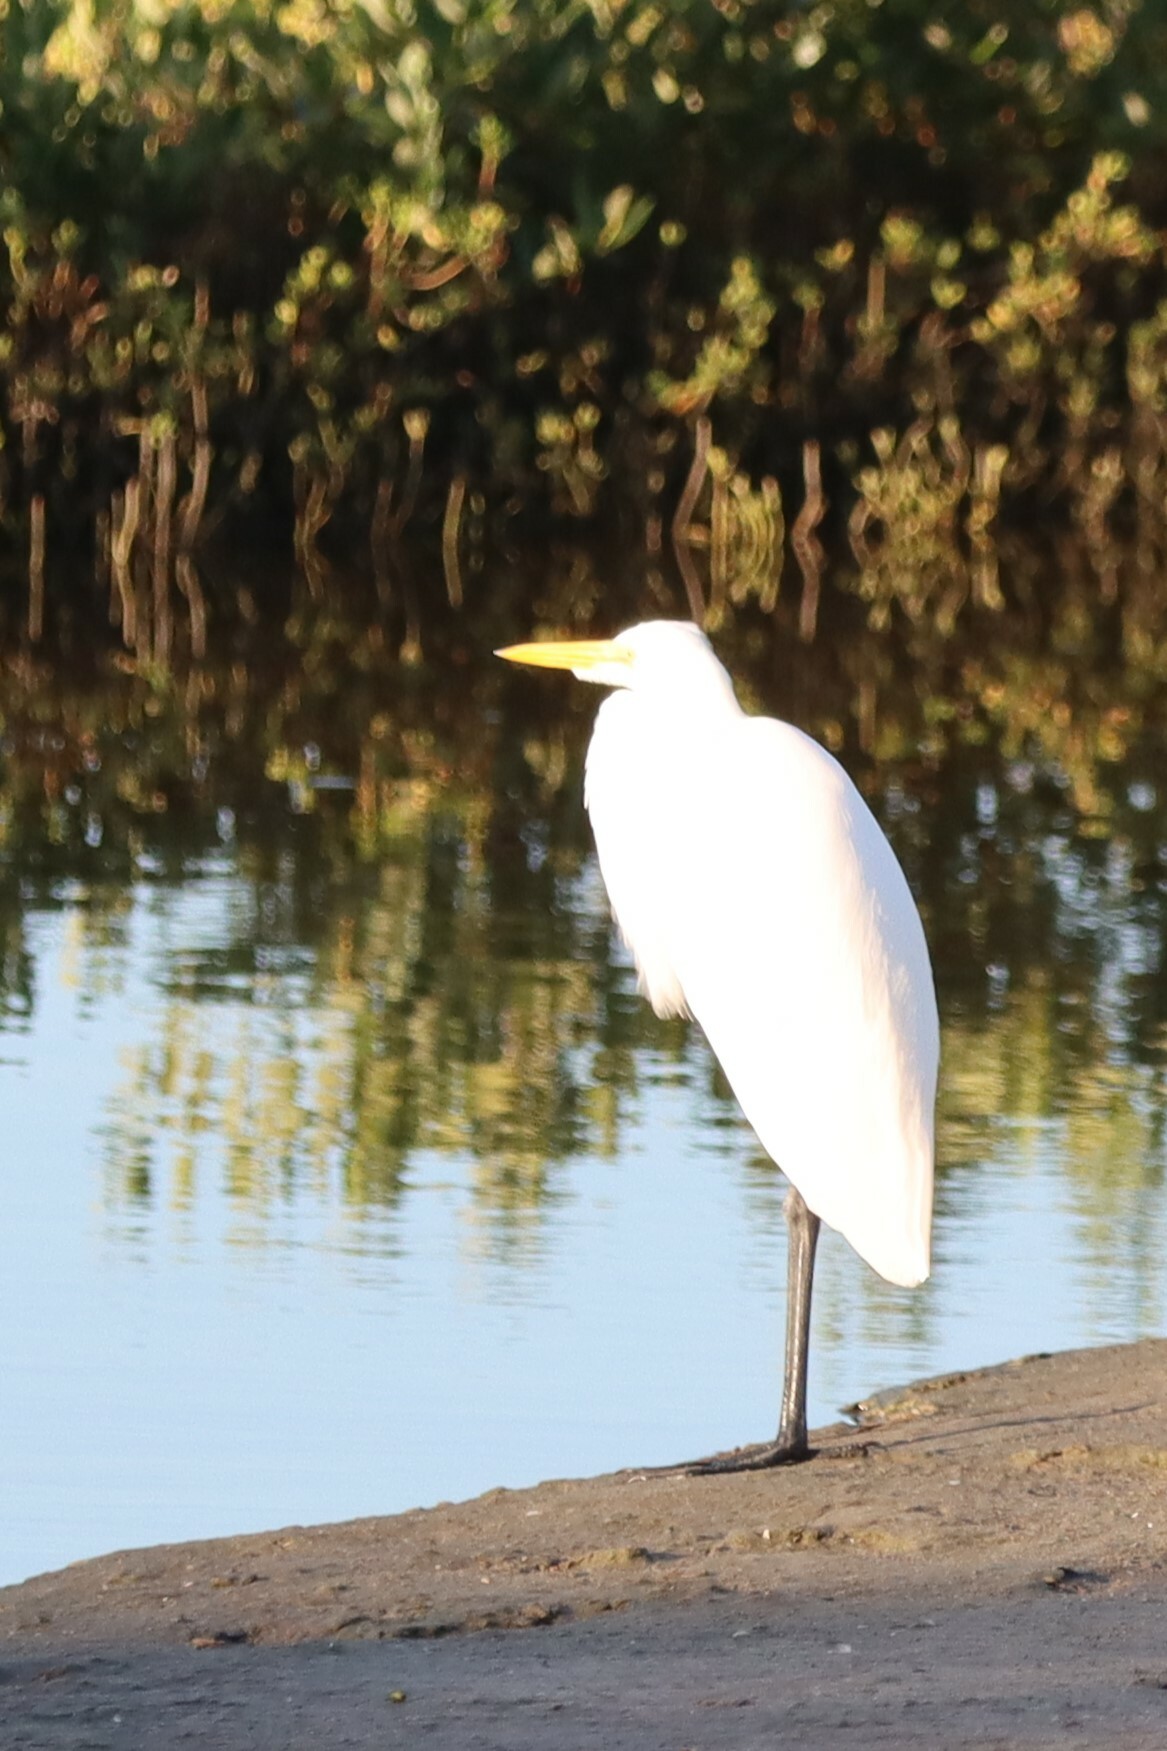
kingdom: Animalia
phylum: Chordata
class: Aves
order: Pelecaniformes
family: Ardeidae
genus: Ardea
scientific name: Ardea alba
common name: Great egret
